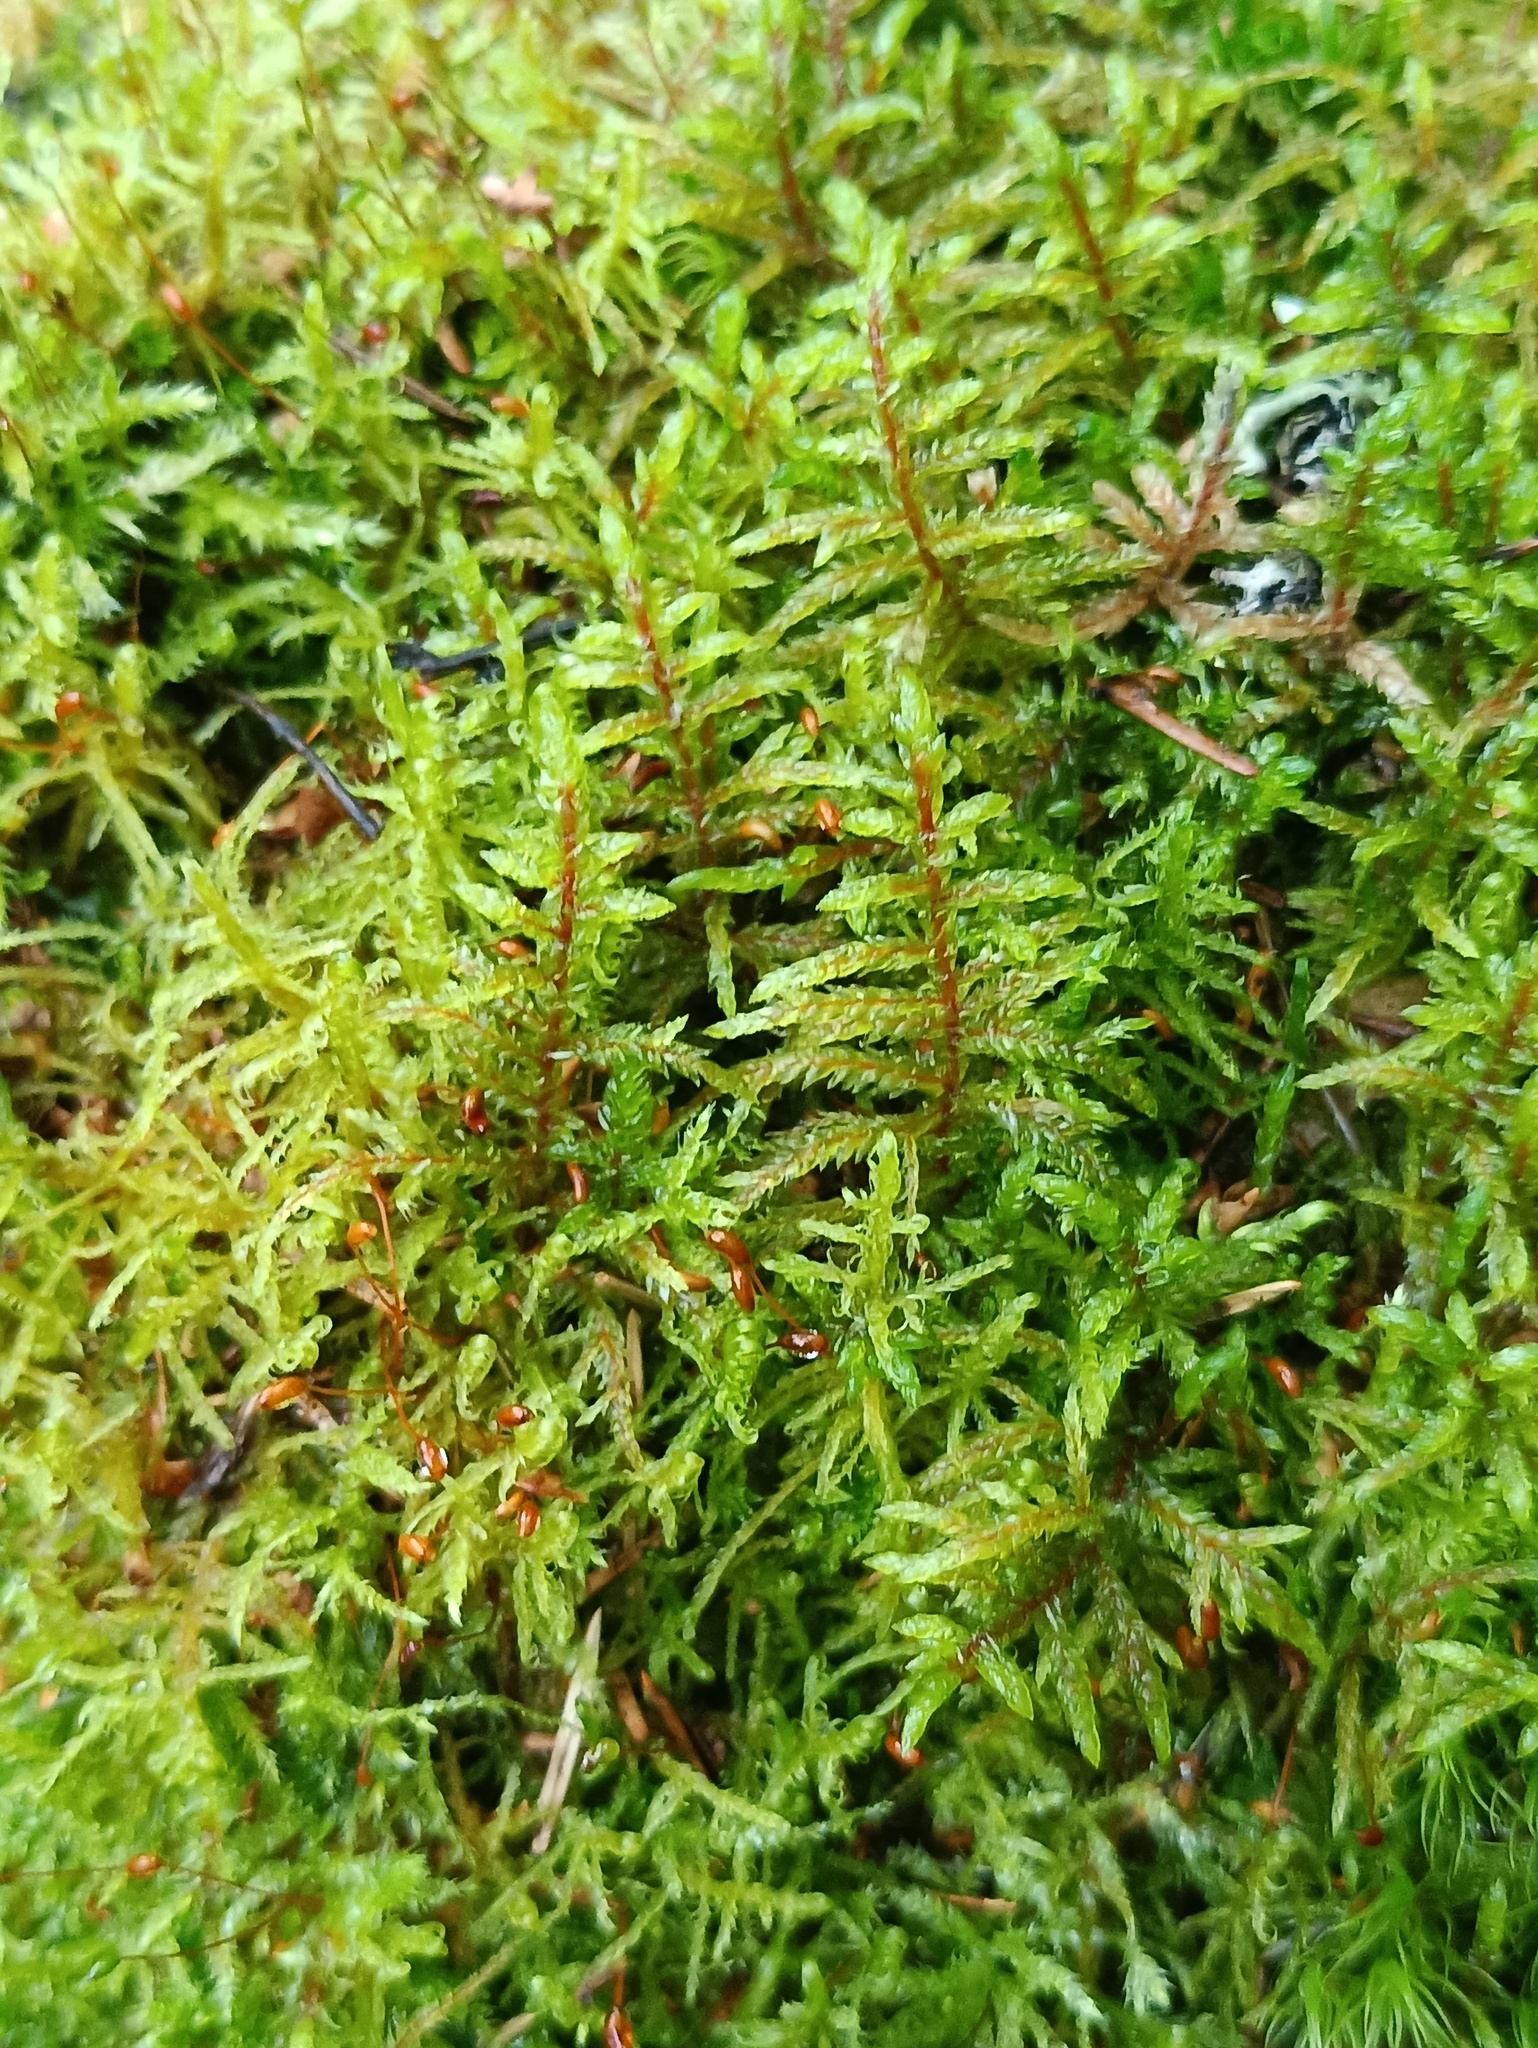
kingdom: Plantae
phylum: Bryophyta
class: Bryopsida
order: Hypnales
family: Hylocomiaceae
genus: Pleurozium
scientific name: Pleurozium schreberi
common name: Red-stemmed feather moss
